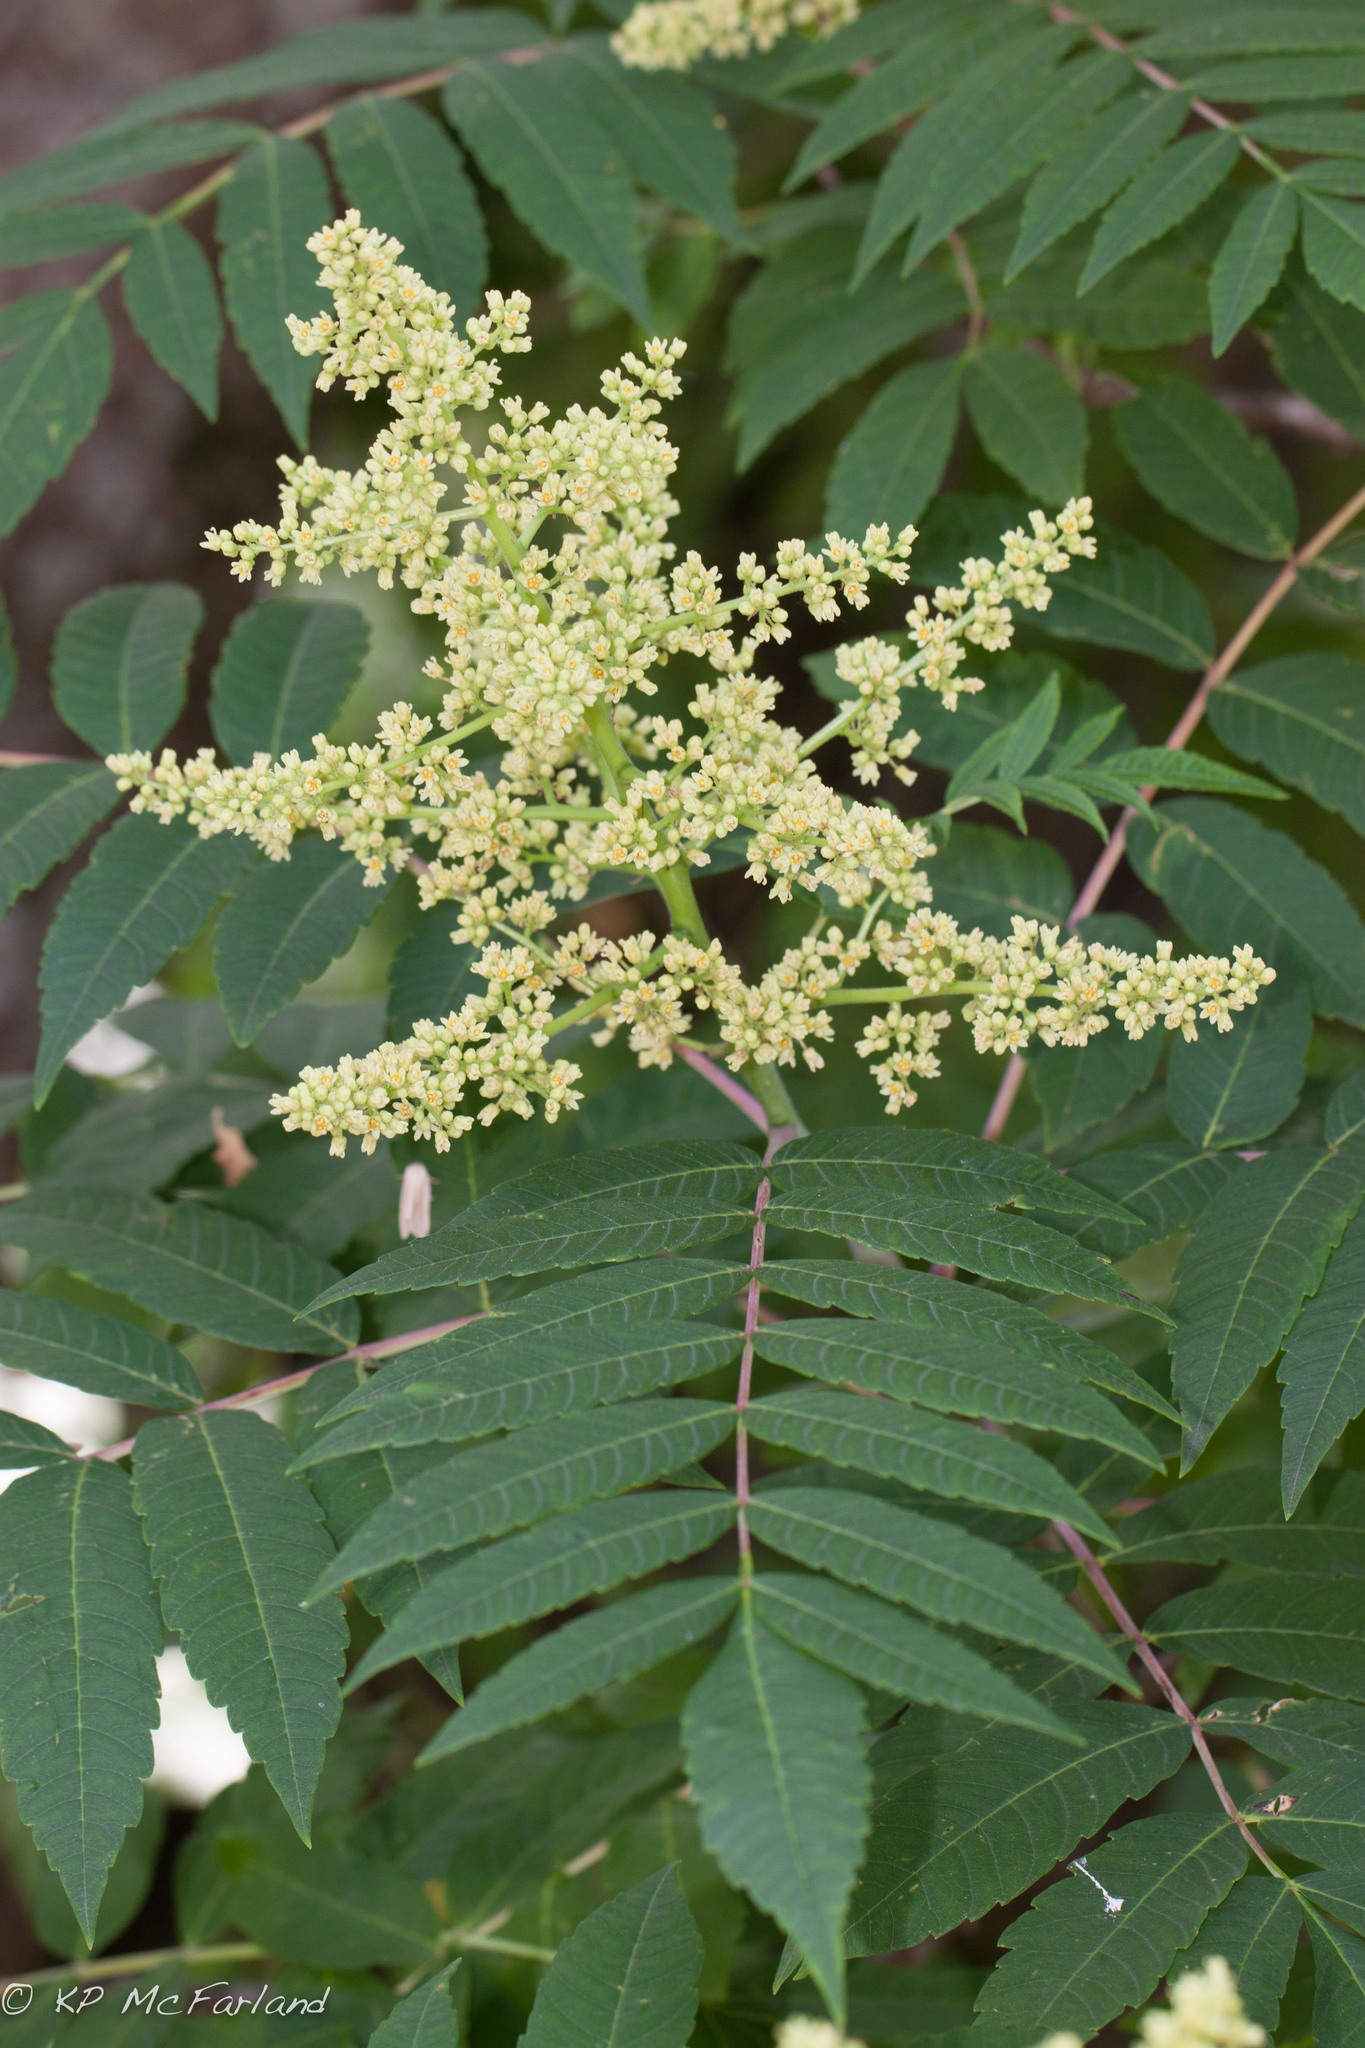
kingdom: Plantae
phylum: Tracheophyta
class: Magnoliopsida
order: Sapindales
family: Anacardiaceae
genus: Rhus
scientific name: Rhus glabra
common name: Scarlet sumac
